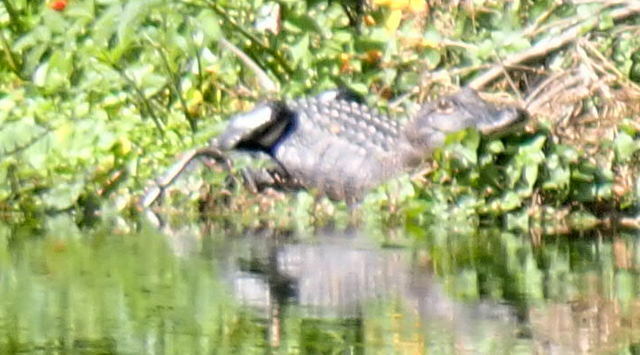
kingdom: Animalia
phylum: Chordata
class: Crocodylia
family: Alligatoridae
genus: Alligator
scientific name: Alligator mississippiensis
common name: American alligator
